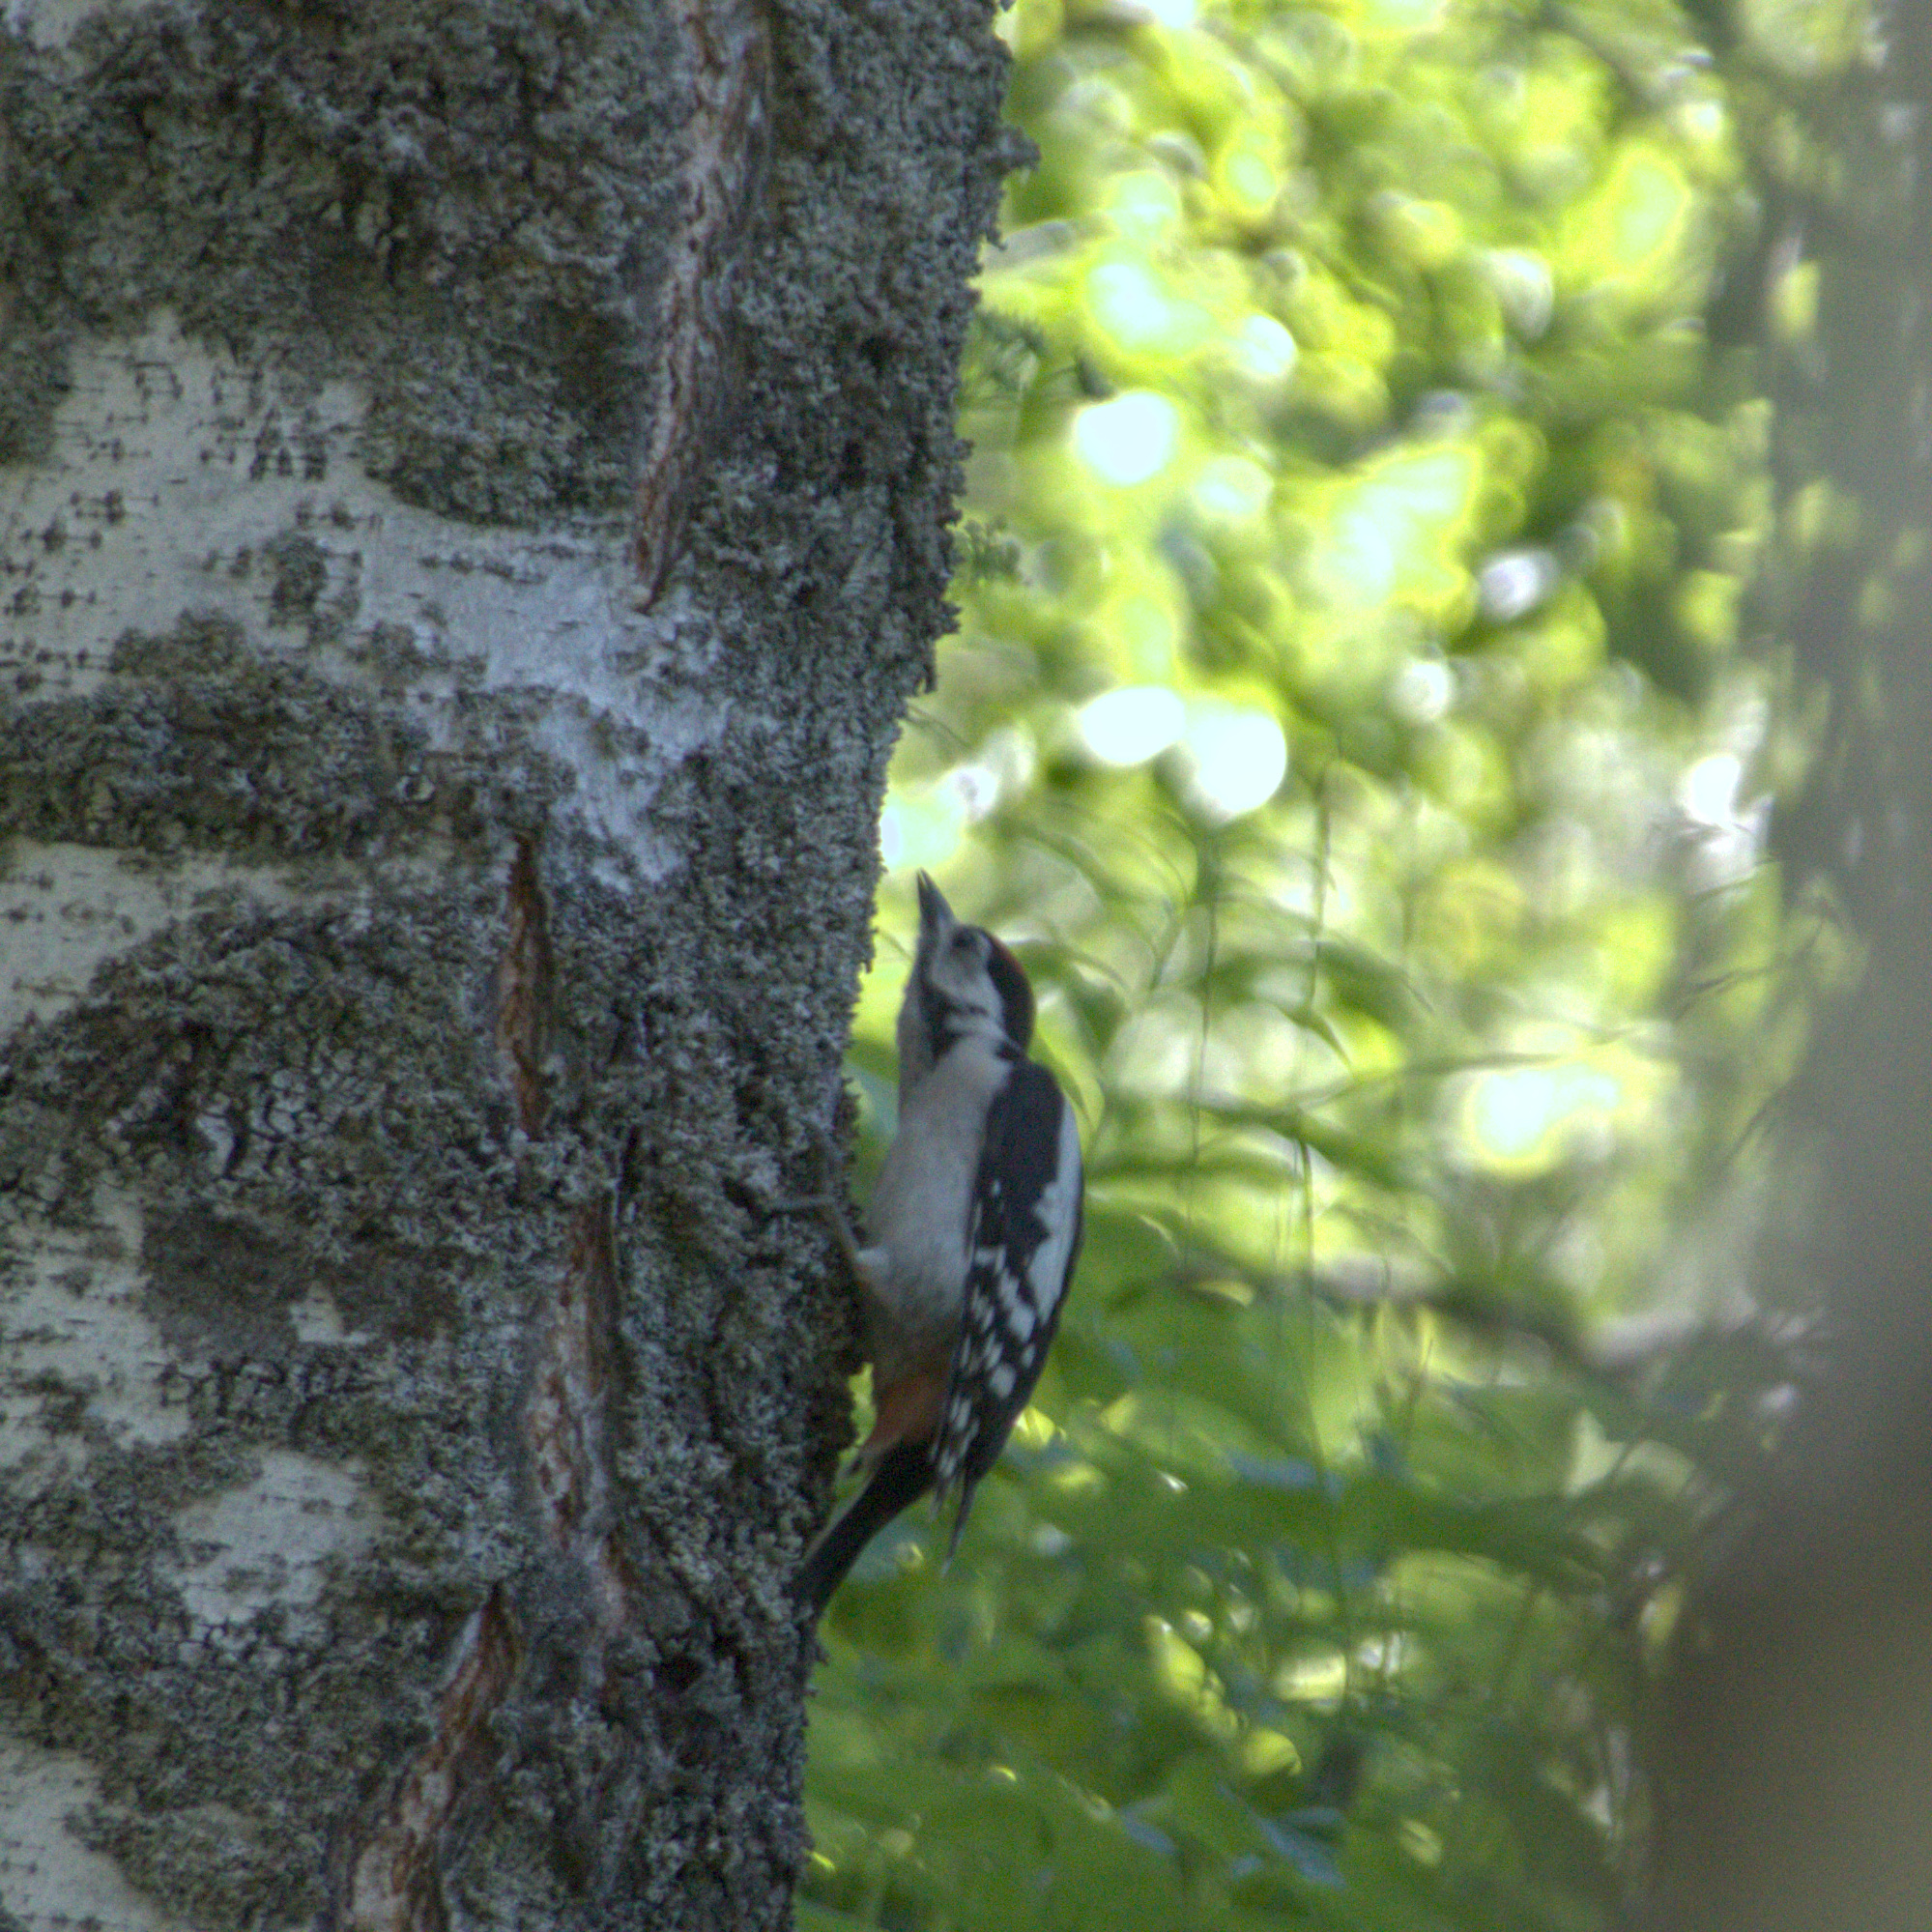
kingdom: Animalia
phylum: Chordata
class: Aves
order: Piciformes
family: Picidae
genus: Dendrocopos
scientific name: Dendrocopos major
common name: Great spotted woodpecker
